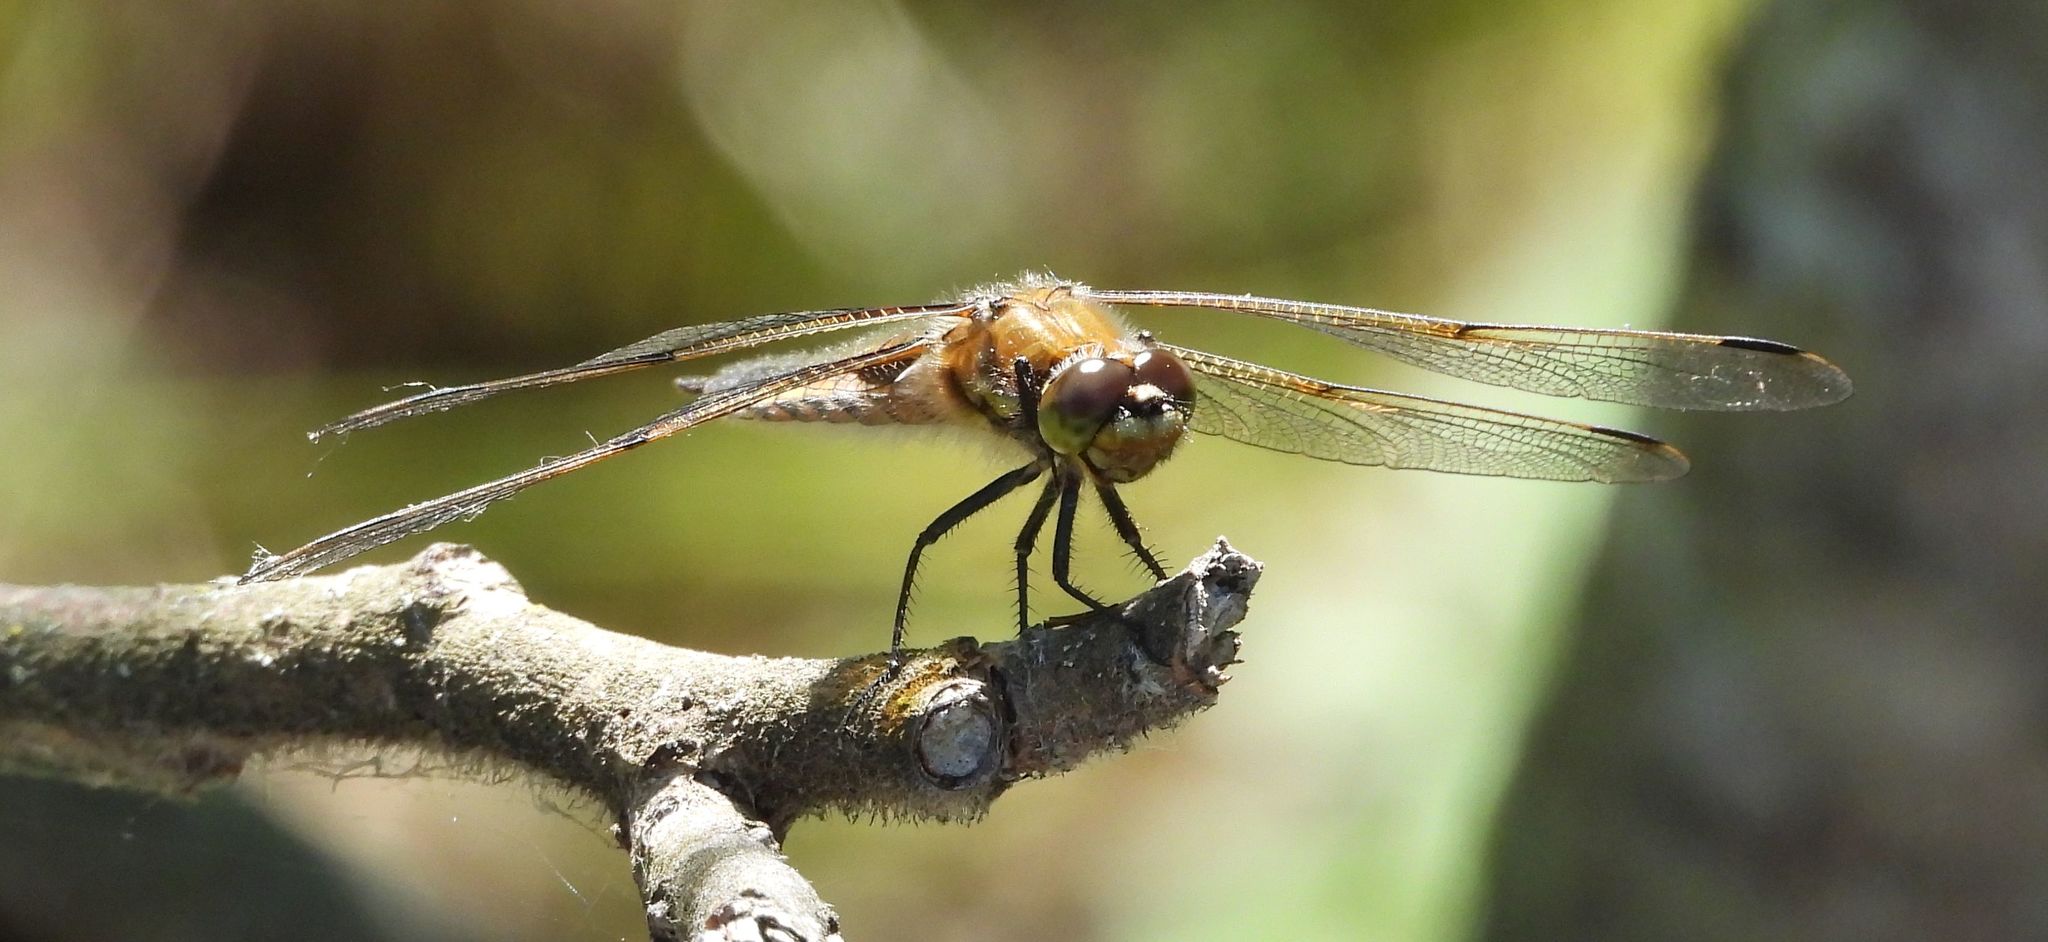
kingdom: Animalia
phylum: Arthropoda
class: Insecta
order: Odonata
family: Libellulidae
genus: Libellula
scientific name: Libellula quadrimaculata
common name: Four-spotted chaser
